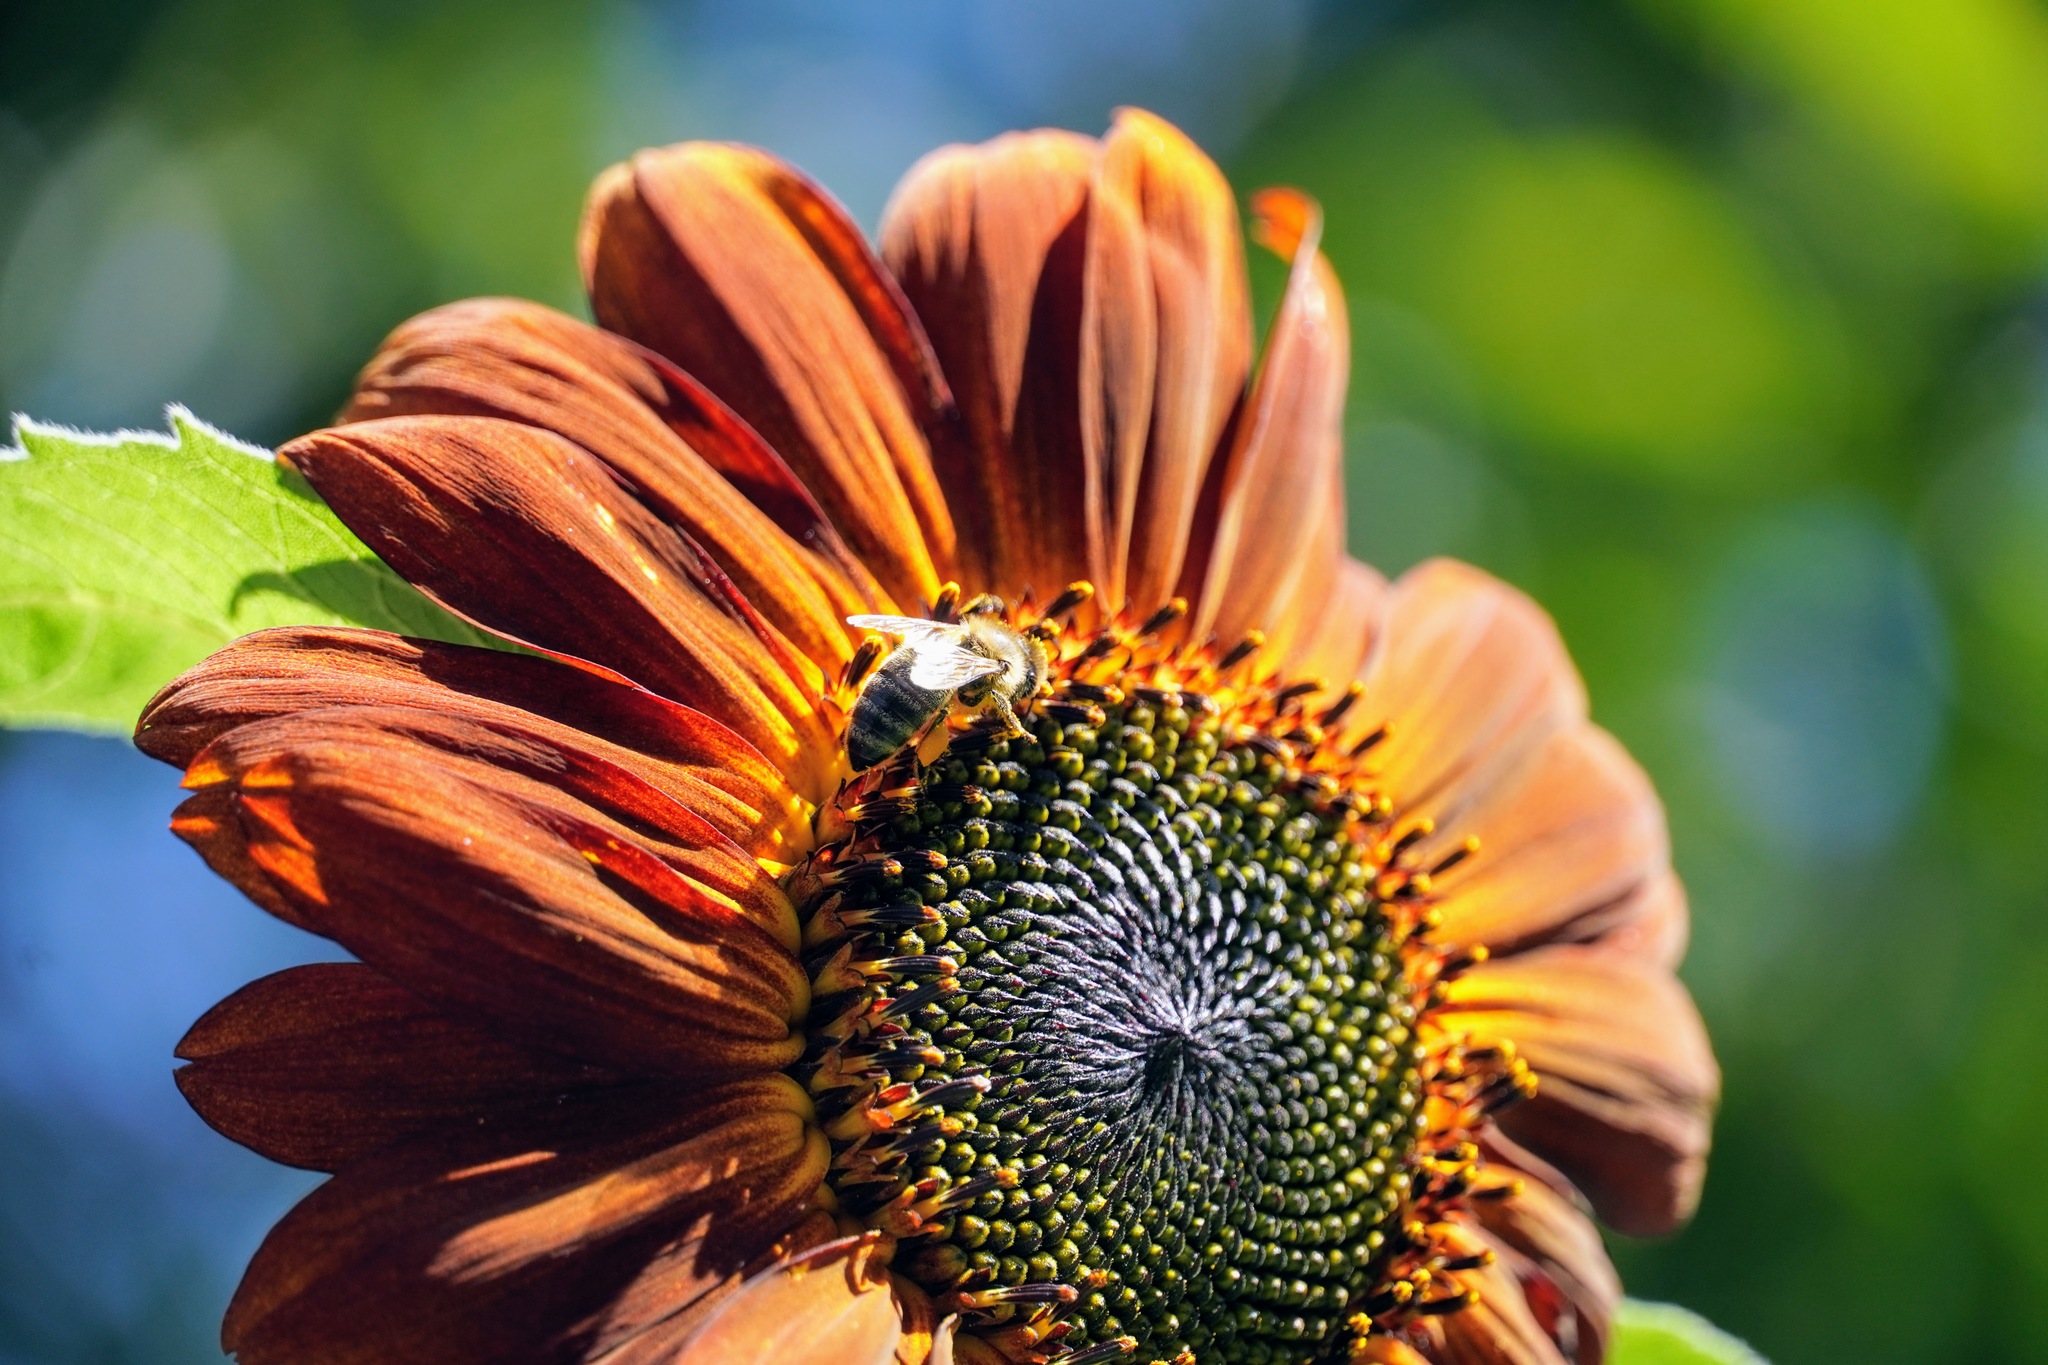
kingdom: Animalia
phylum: Arthropoda
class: Insecta
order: Hymenoptera
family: Apidae
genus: Apis
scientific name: Apis mellifera
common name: Honey bee
